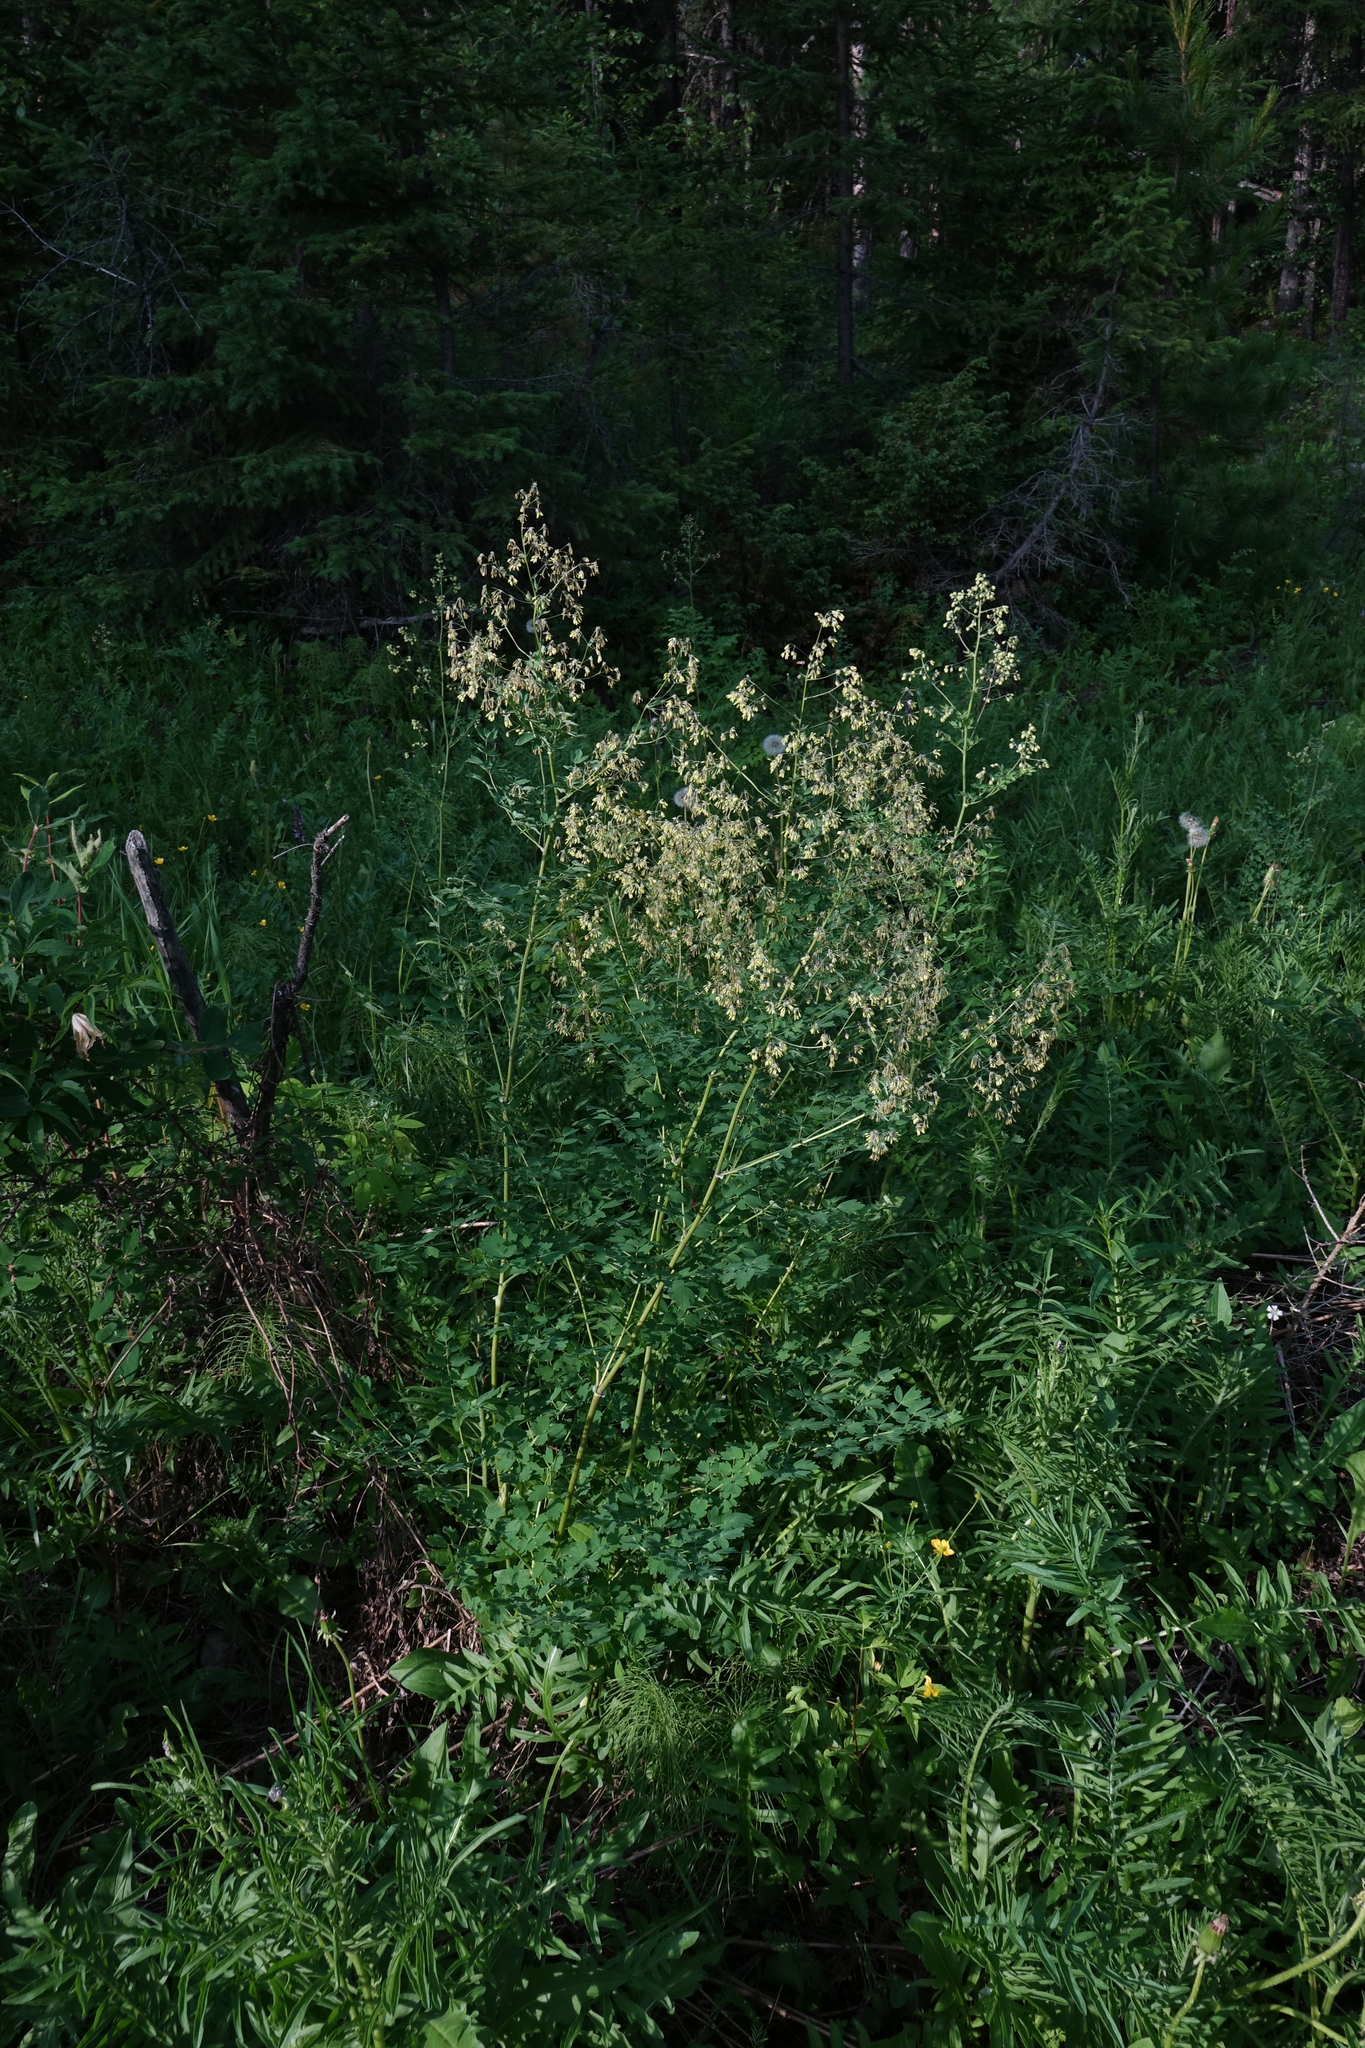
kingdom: Plantae
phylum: Tracheophyta
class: Magnoliopsida
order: Ranunculales
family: Ranunculaceae
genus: Thalictrum
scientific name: Thalictrum minus
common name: Lesser meadow-rue
